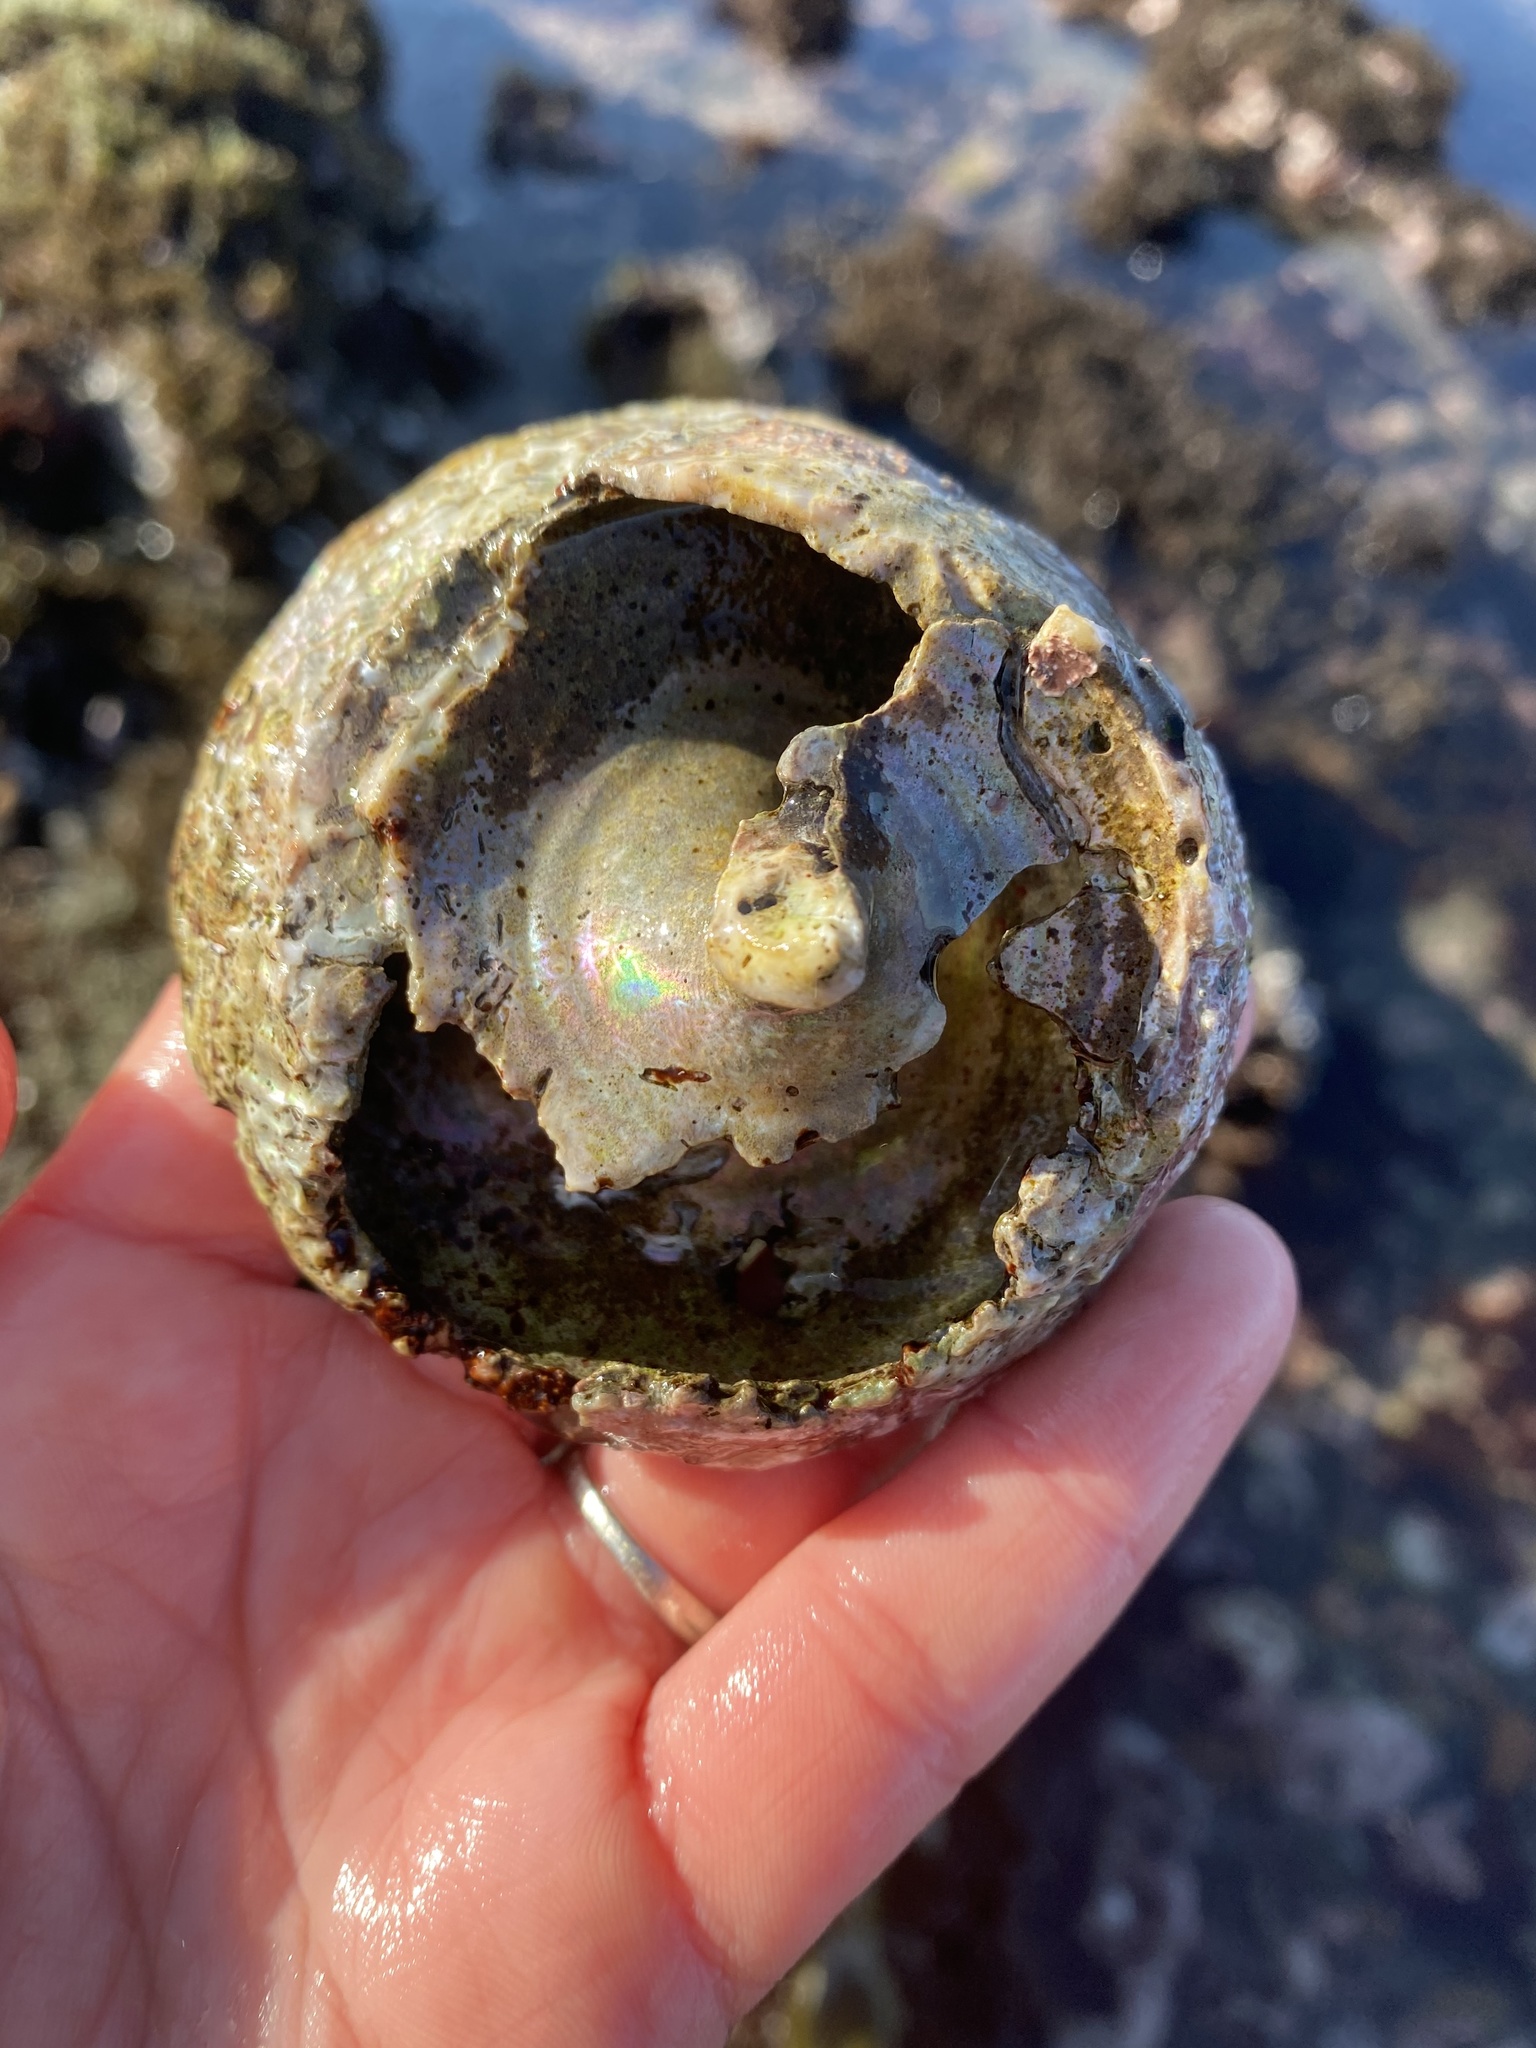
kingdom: Animalia
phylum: Mollusca
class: Gastropoda
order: Trochida
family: Turbinidae
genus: Pomaulax
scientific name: Pomaulax gibberosus
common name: Red turban
